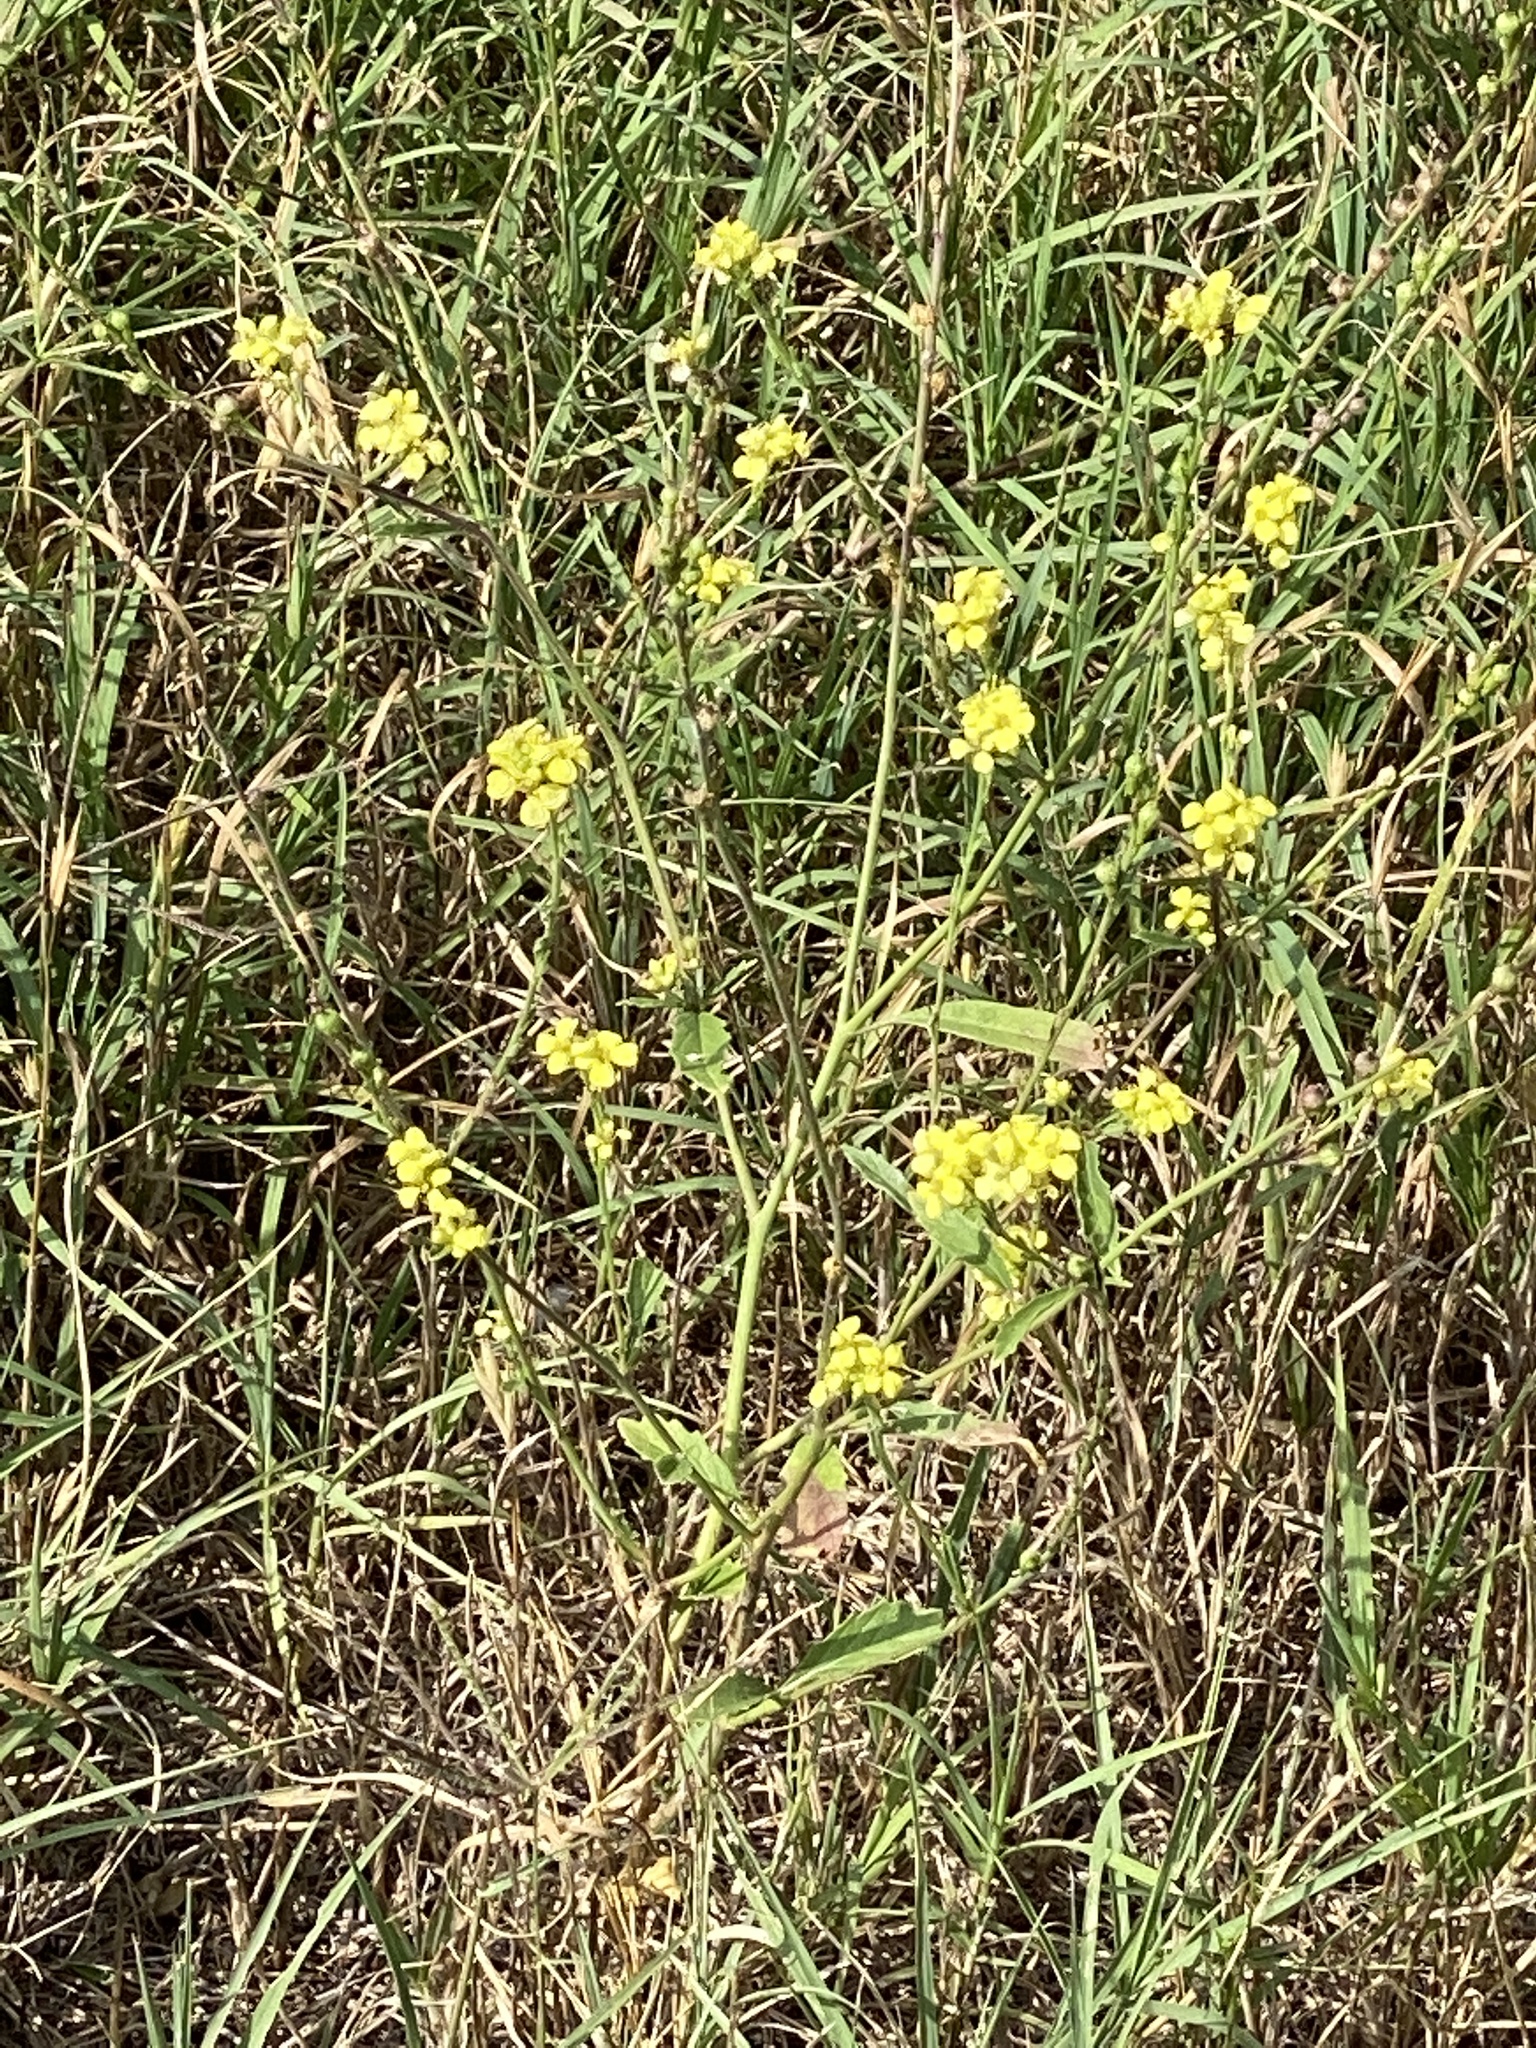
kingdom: Plantae
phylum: Tracheophyta
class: Magnoliopsida
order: Brassicales
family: Brassicaceae
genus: Rapistrum
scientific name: Rapistrum rugosum
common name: Annual bastardcabbage
